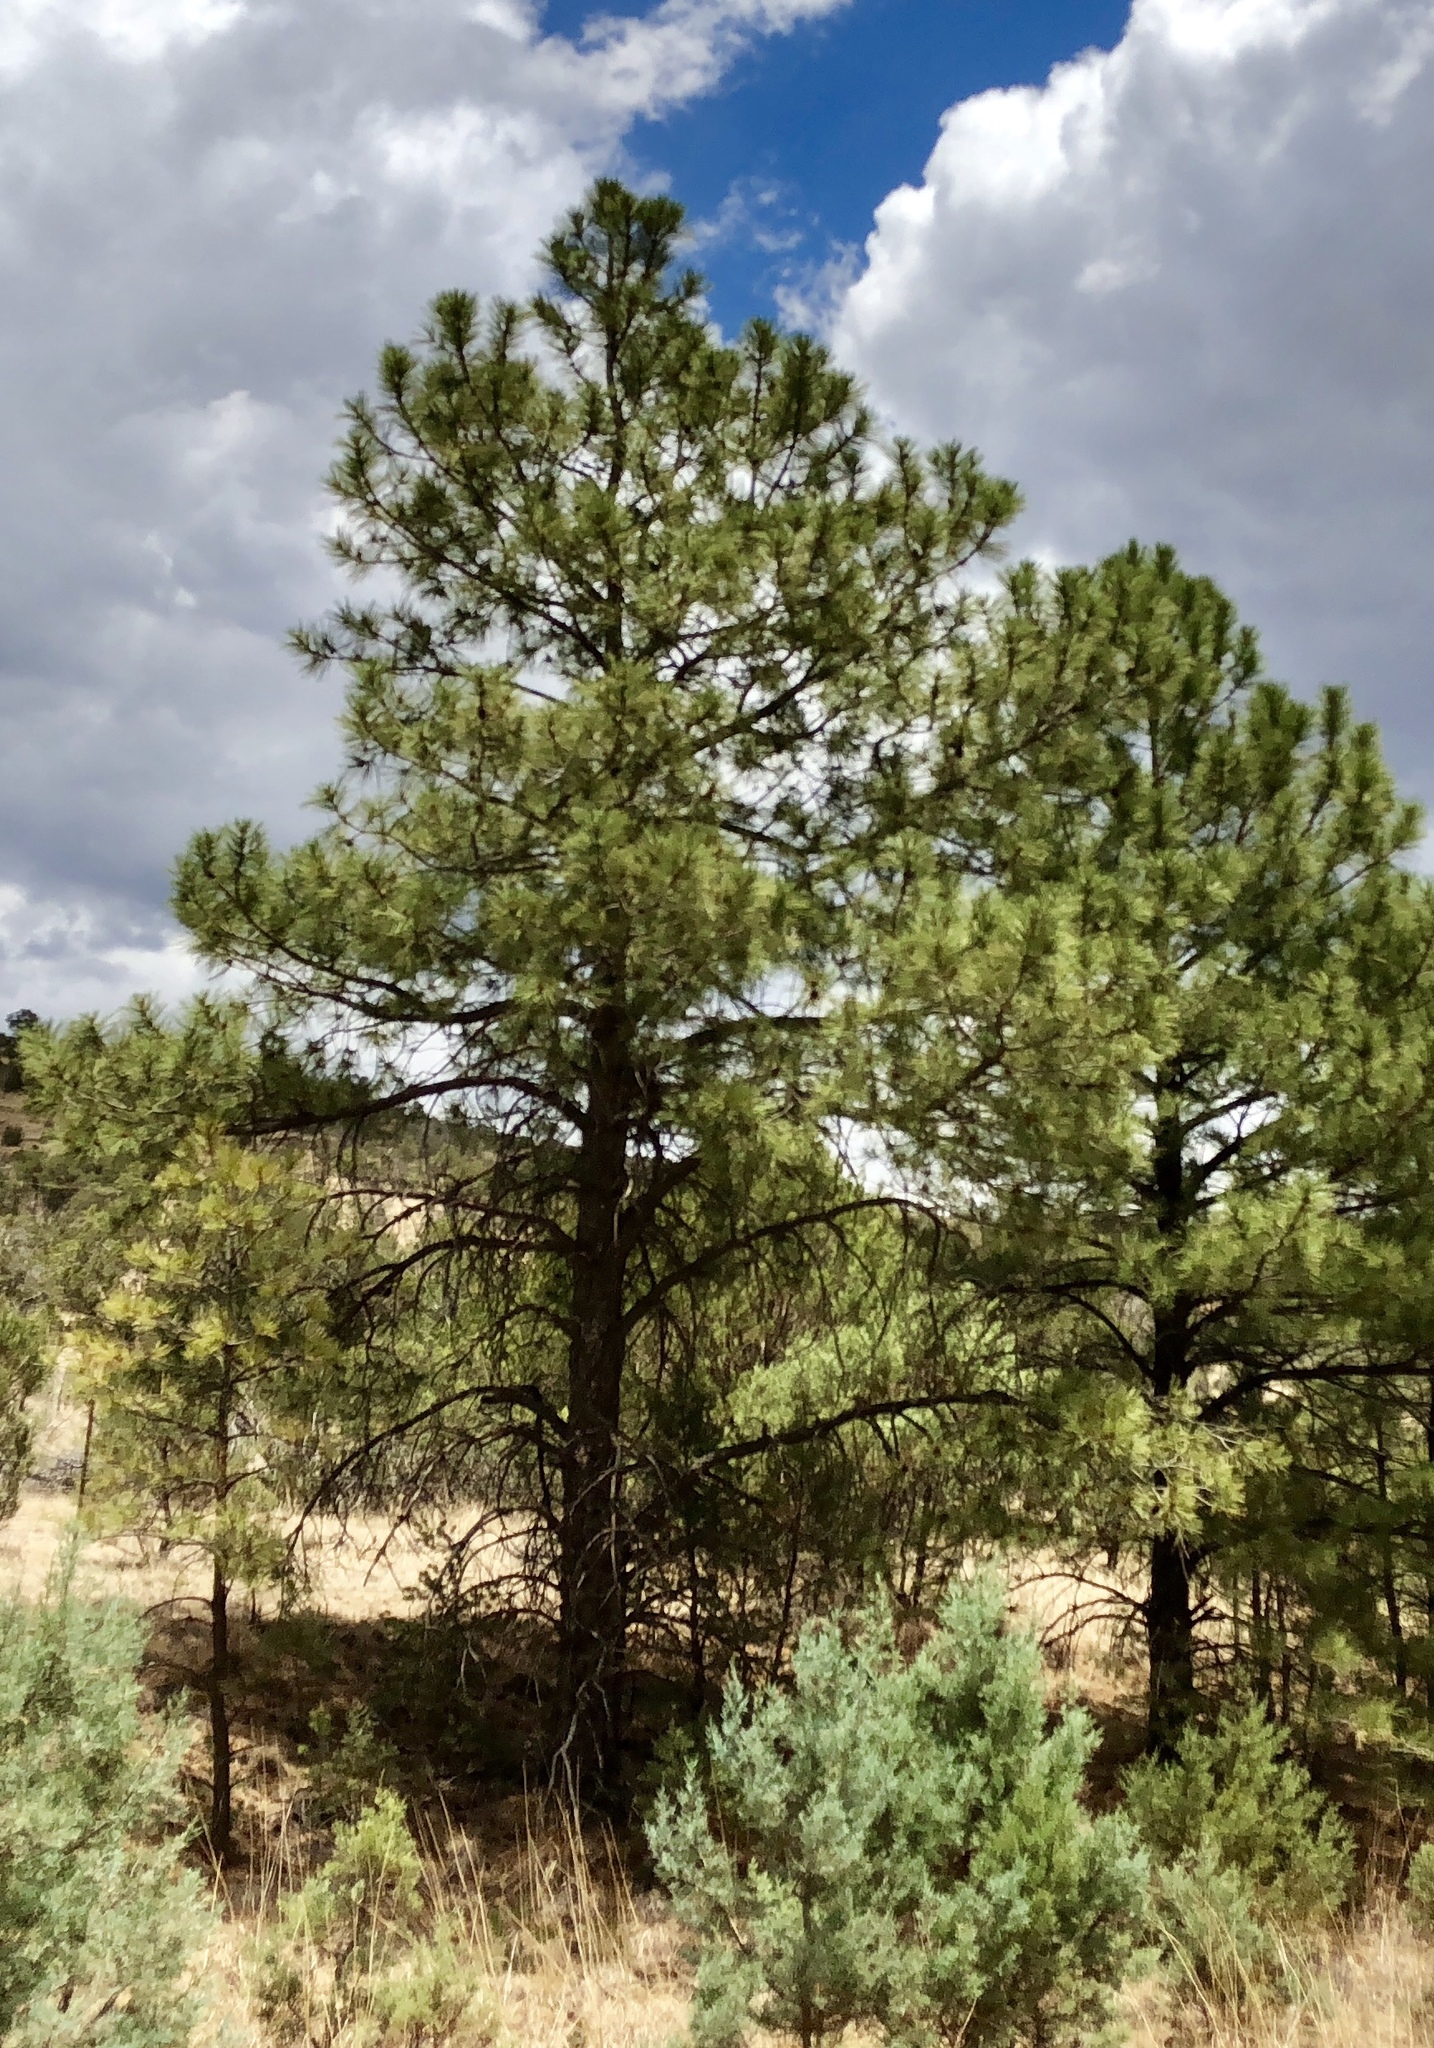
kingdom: Plantae
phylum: Tracheophyta
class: Pinopsida
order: Pinales
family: Pinaceae
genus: Pinus
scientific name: Pinus ponderosa
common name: Western yellow-pine
